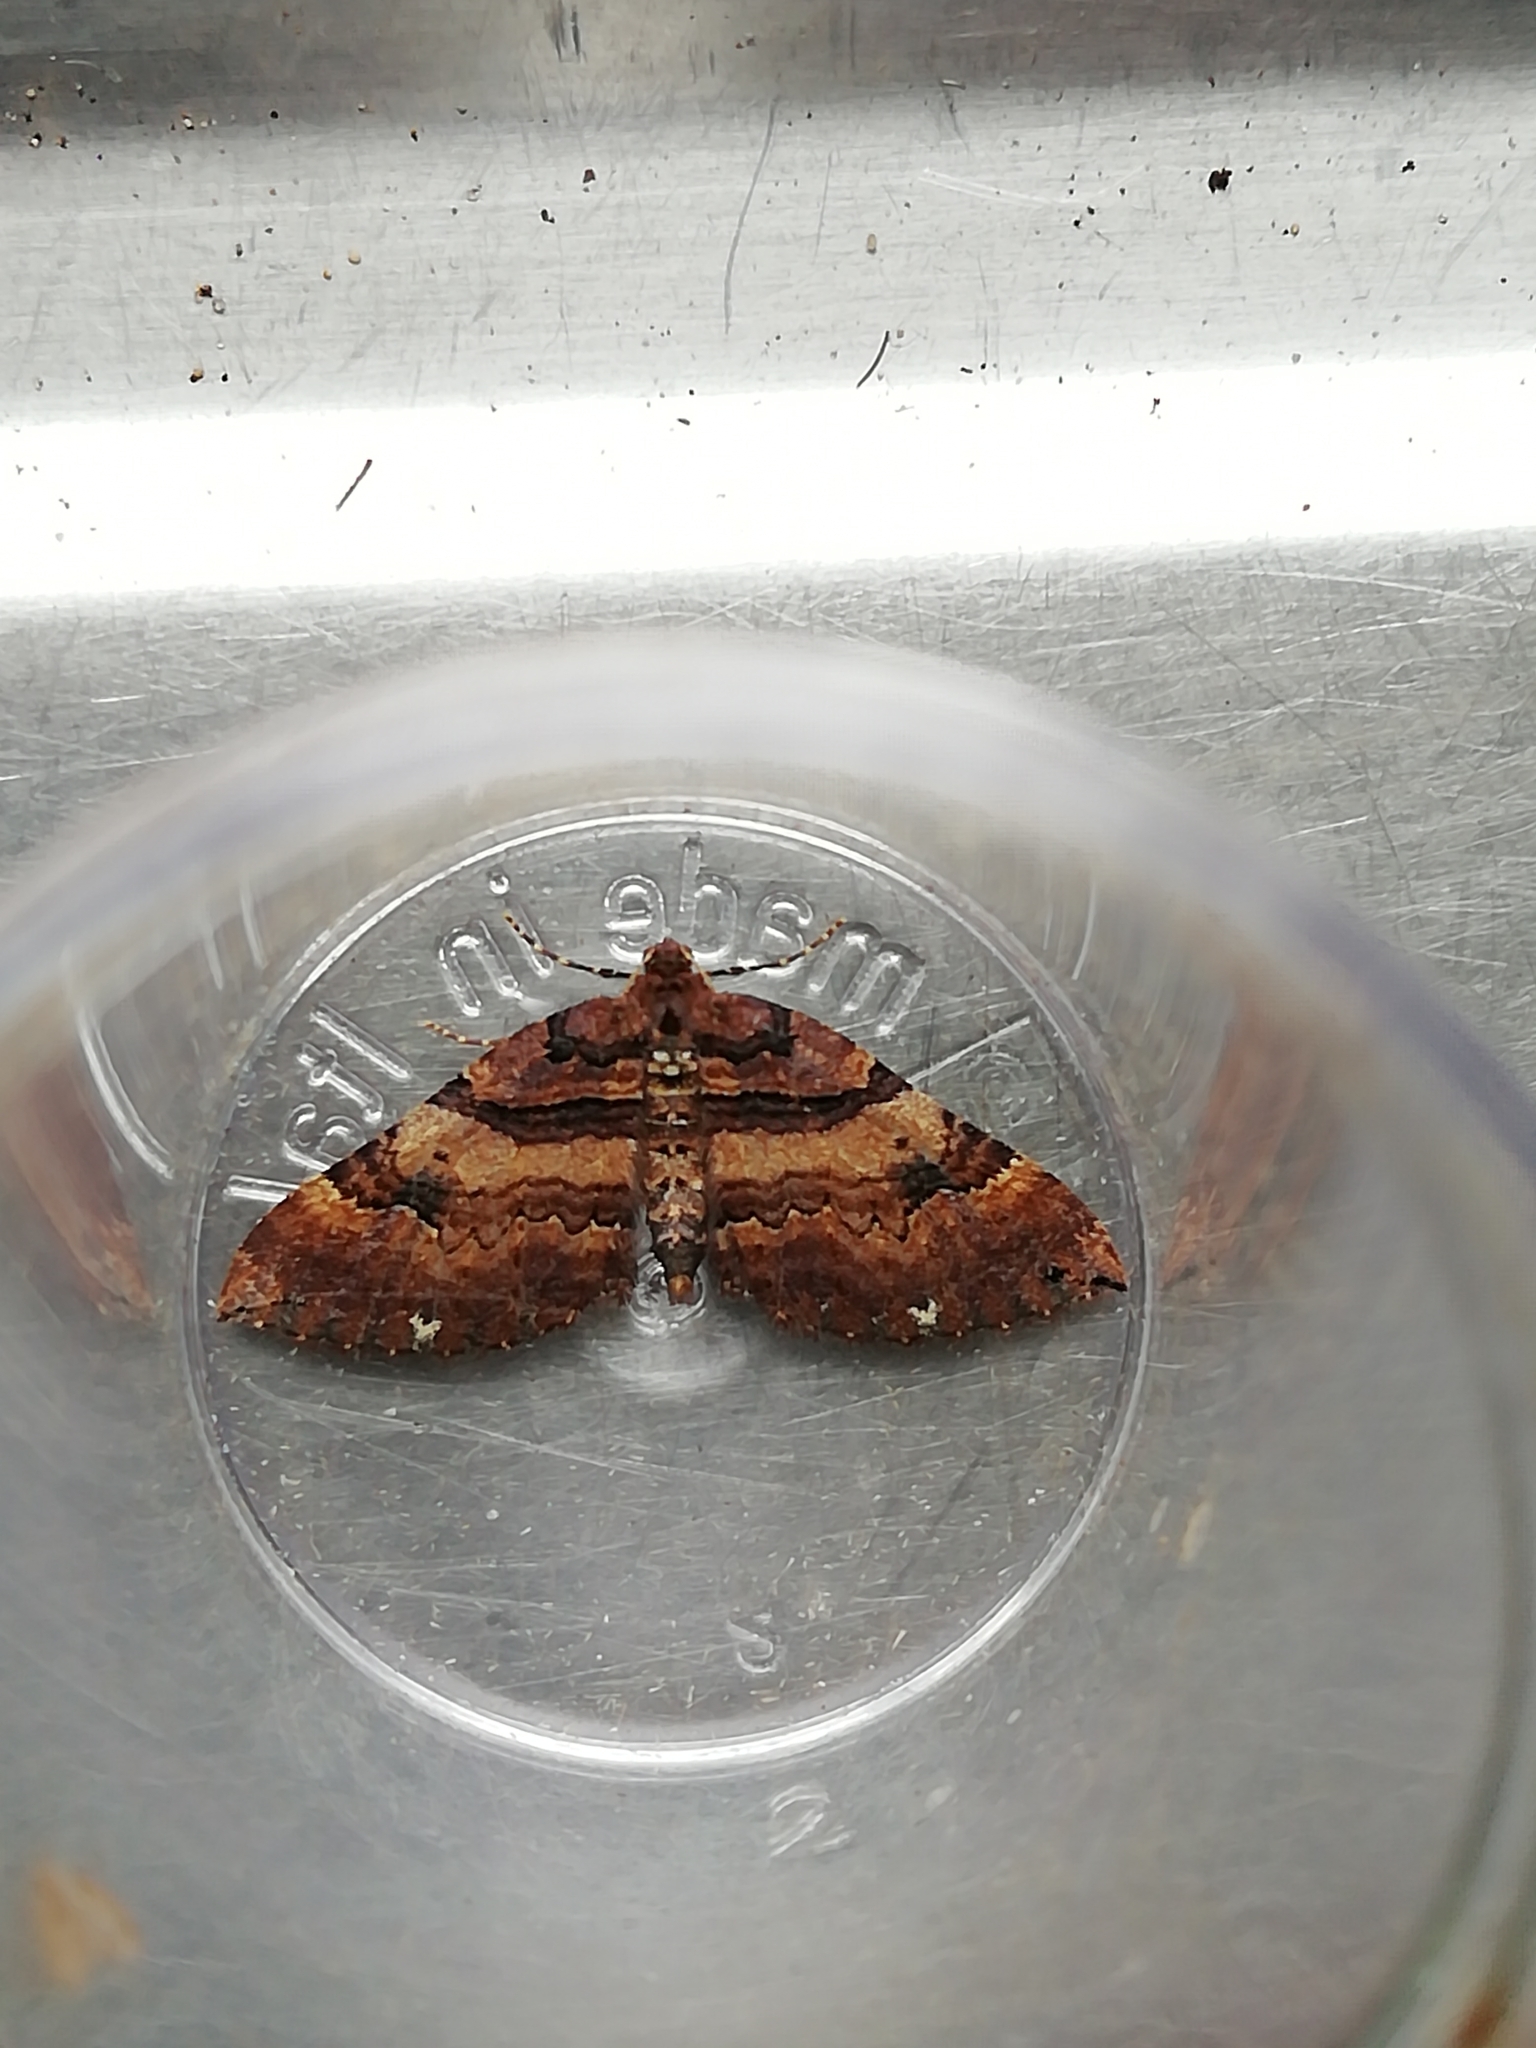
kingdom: Animalia
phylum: Arthropoda
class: Insecta
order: Lepidoptera
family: Geometridae
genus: Anticlea
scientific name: Anticlea badiata
